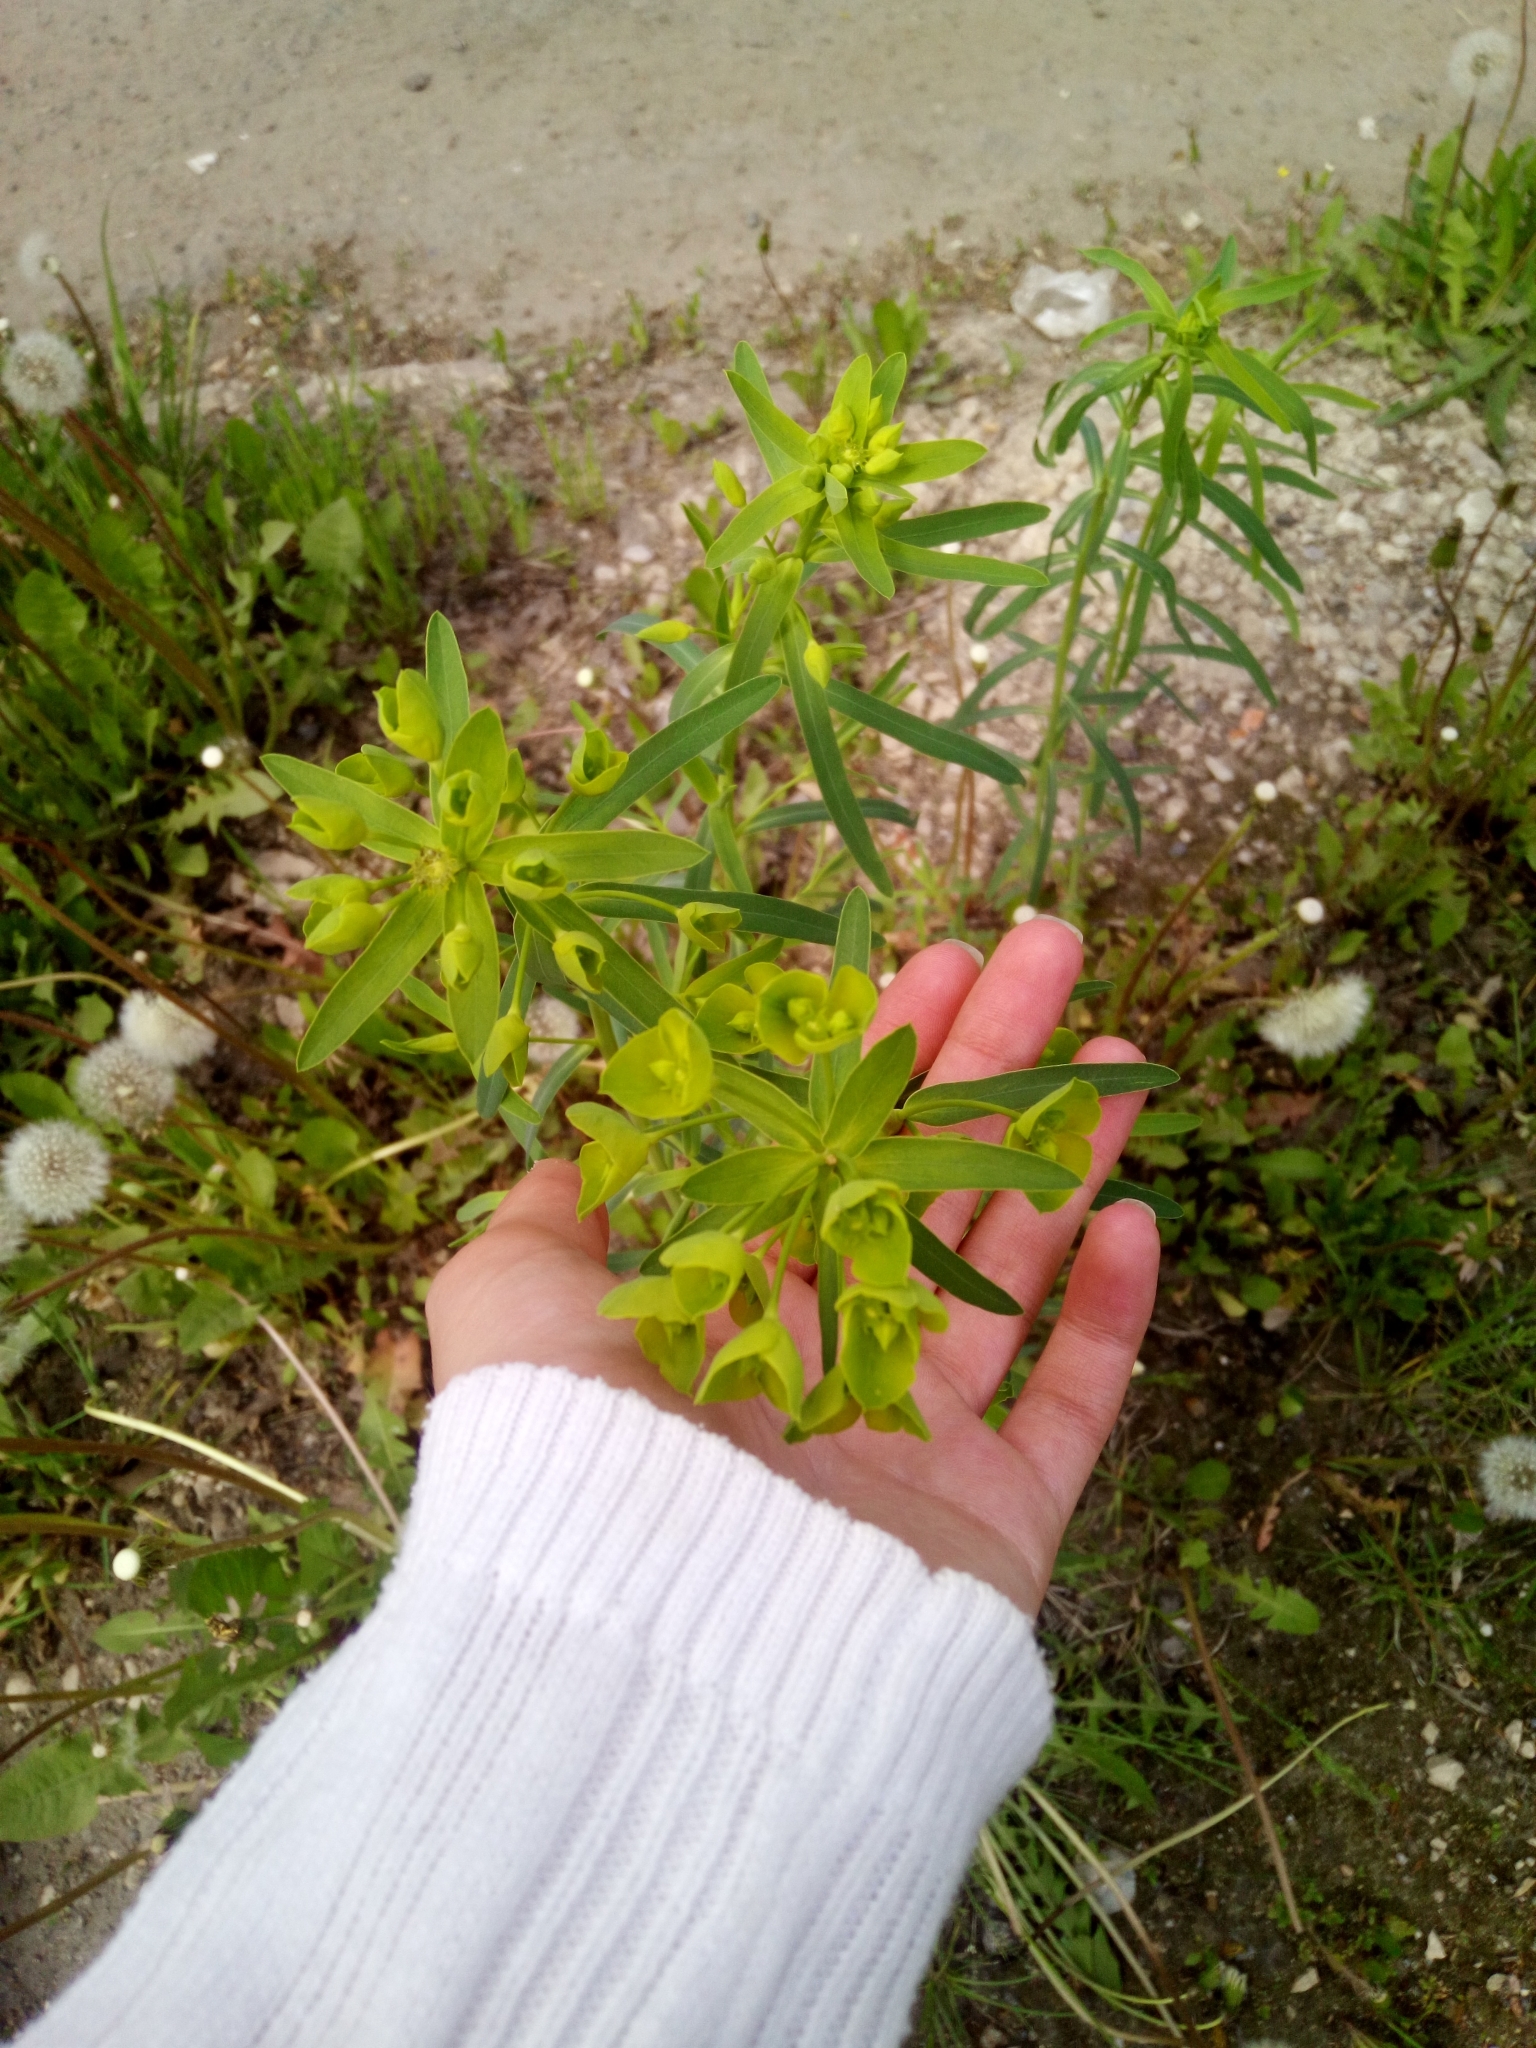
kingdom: Plantae
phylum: Tracheophyta
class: Magnoliopsida
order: Malpighiales
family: Euphorbiaceae
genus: Euphorbia
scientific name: Euphorbia virgata
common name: Leafy spurge
